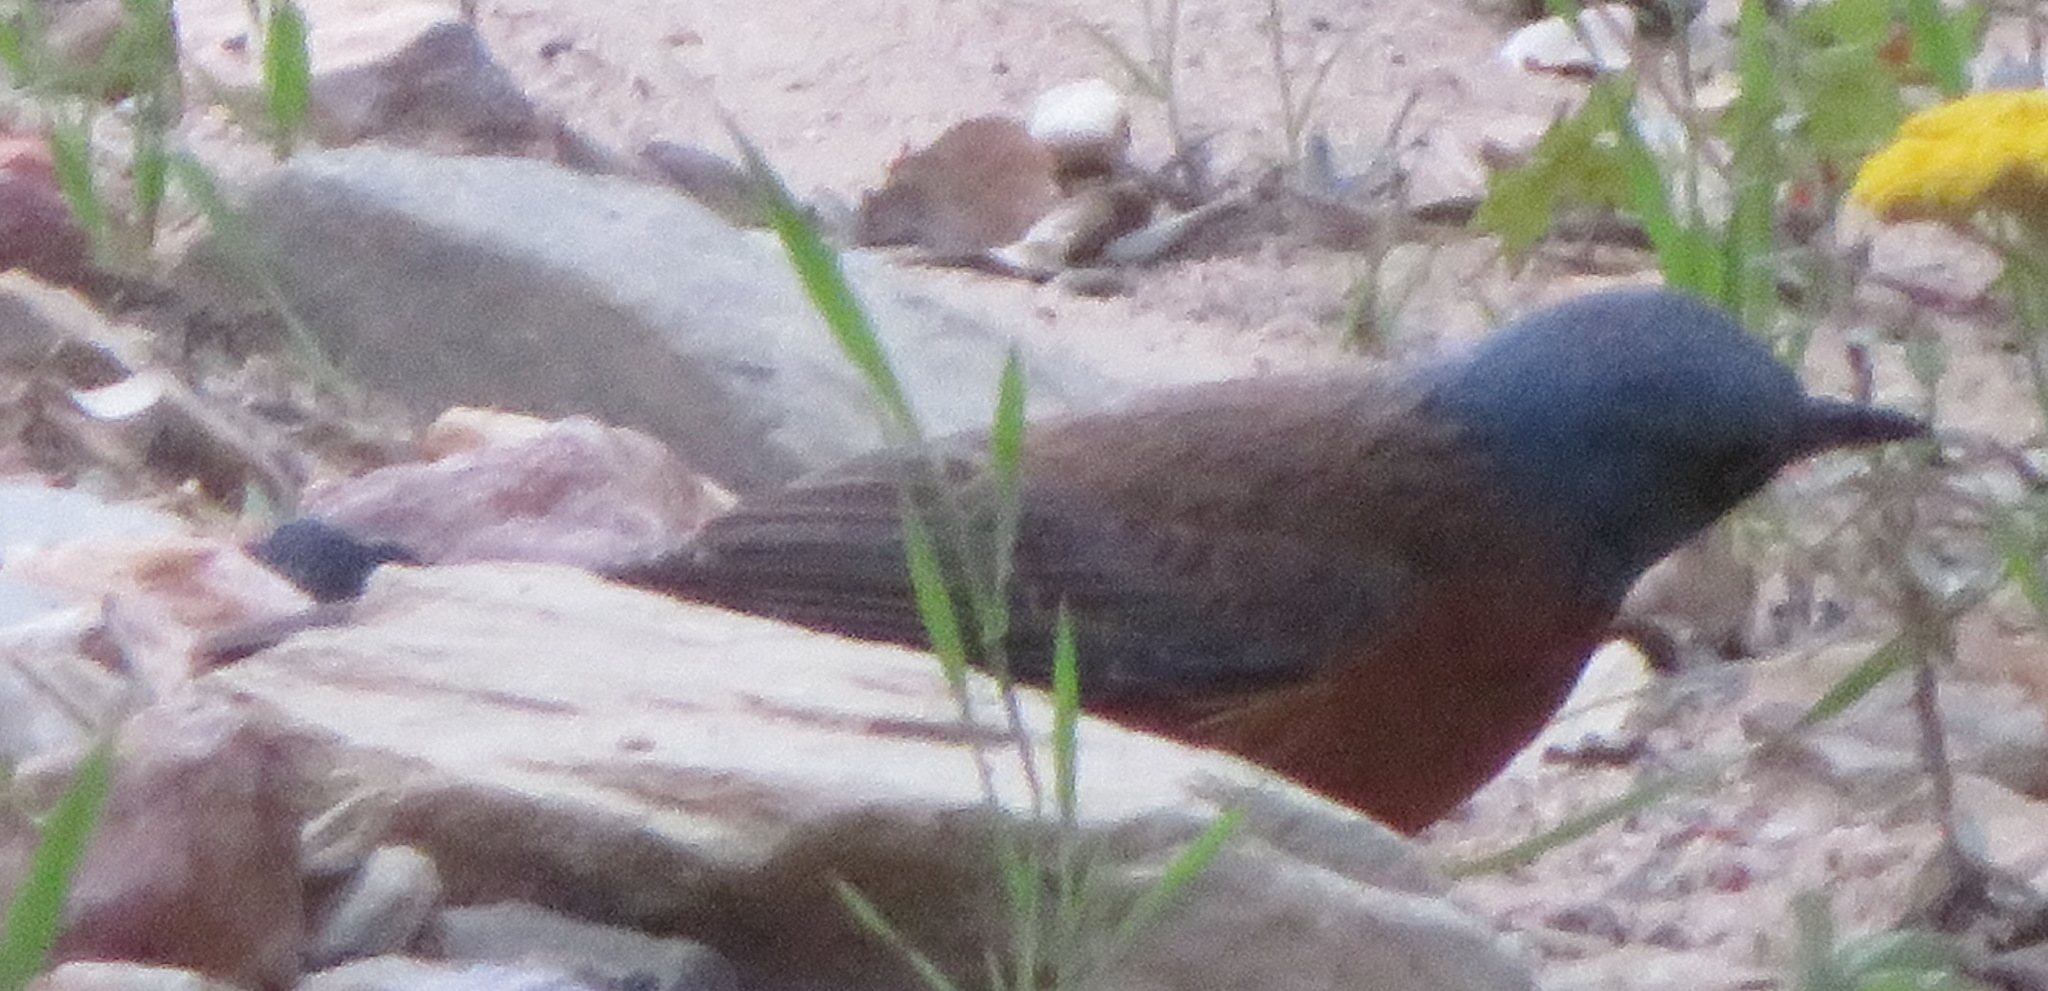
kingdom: Animalia
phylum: Chordata
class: Aves
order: Passeriformes
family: Muscicapidae
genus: Monticola
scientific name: Monticola rupestris
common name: Cape rock thrush
